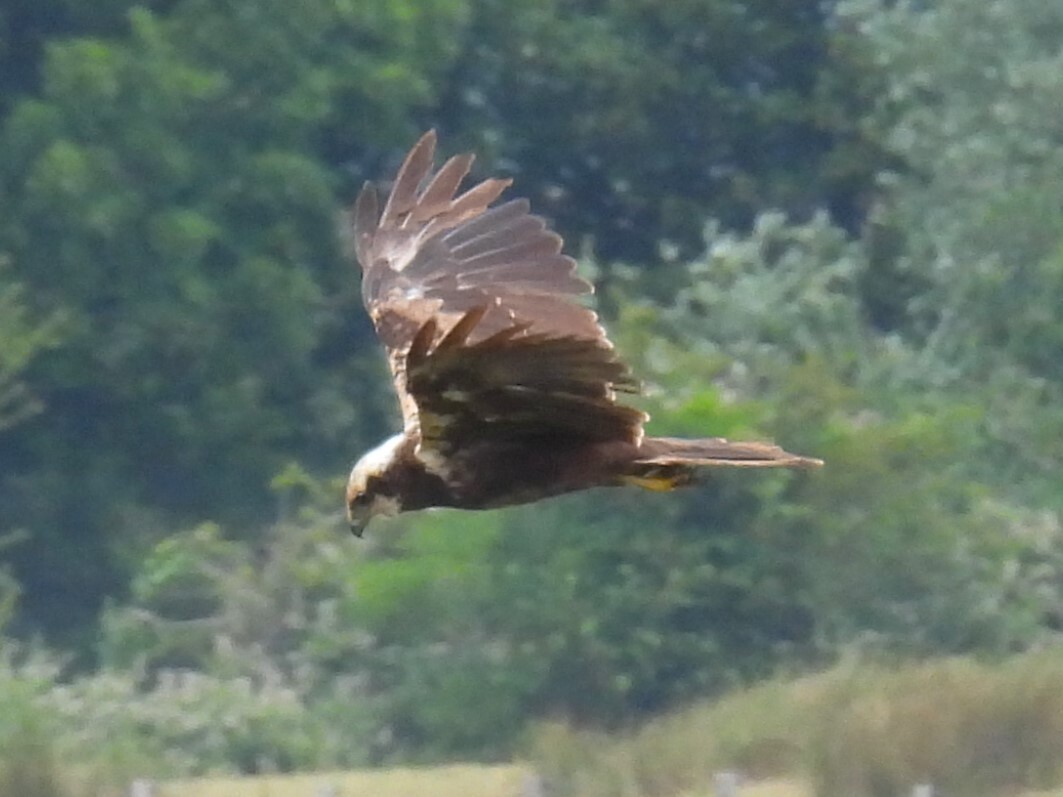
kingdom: Animalia
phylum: Chordata
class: Aves
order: Accipitriformes
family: Accipitridae
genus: Circus
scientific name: Circus aeruginosus
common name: Western marsh harrier
